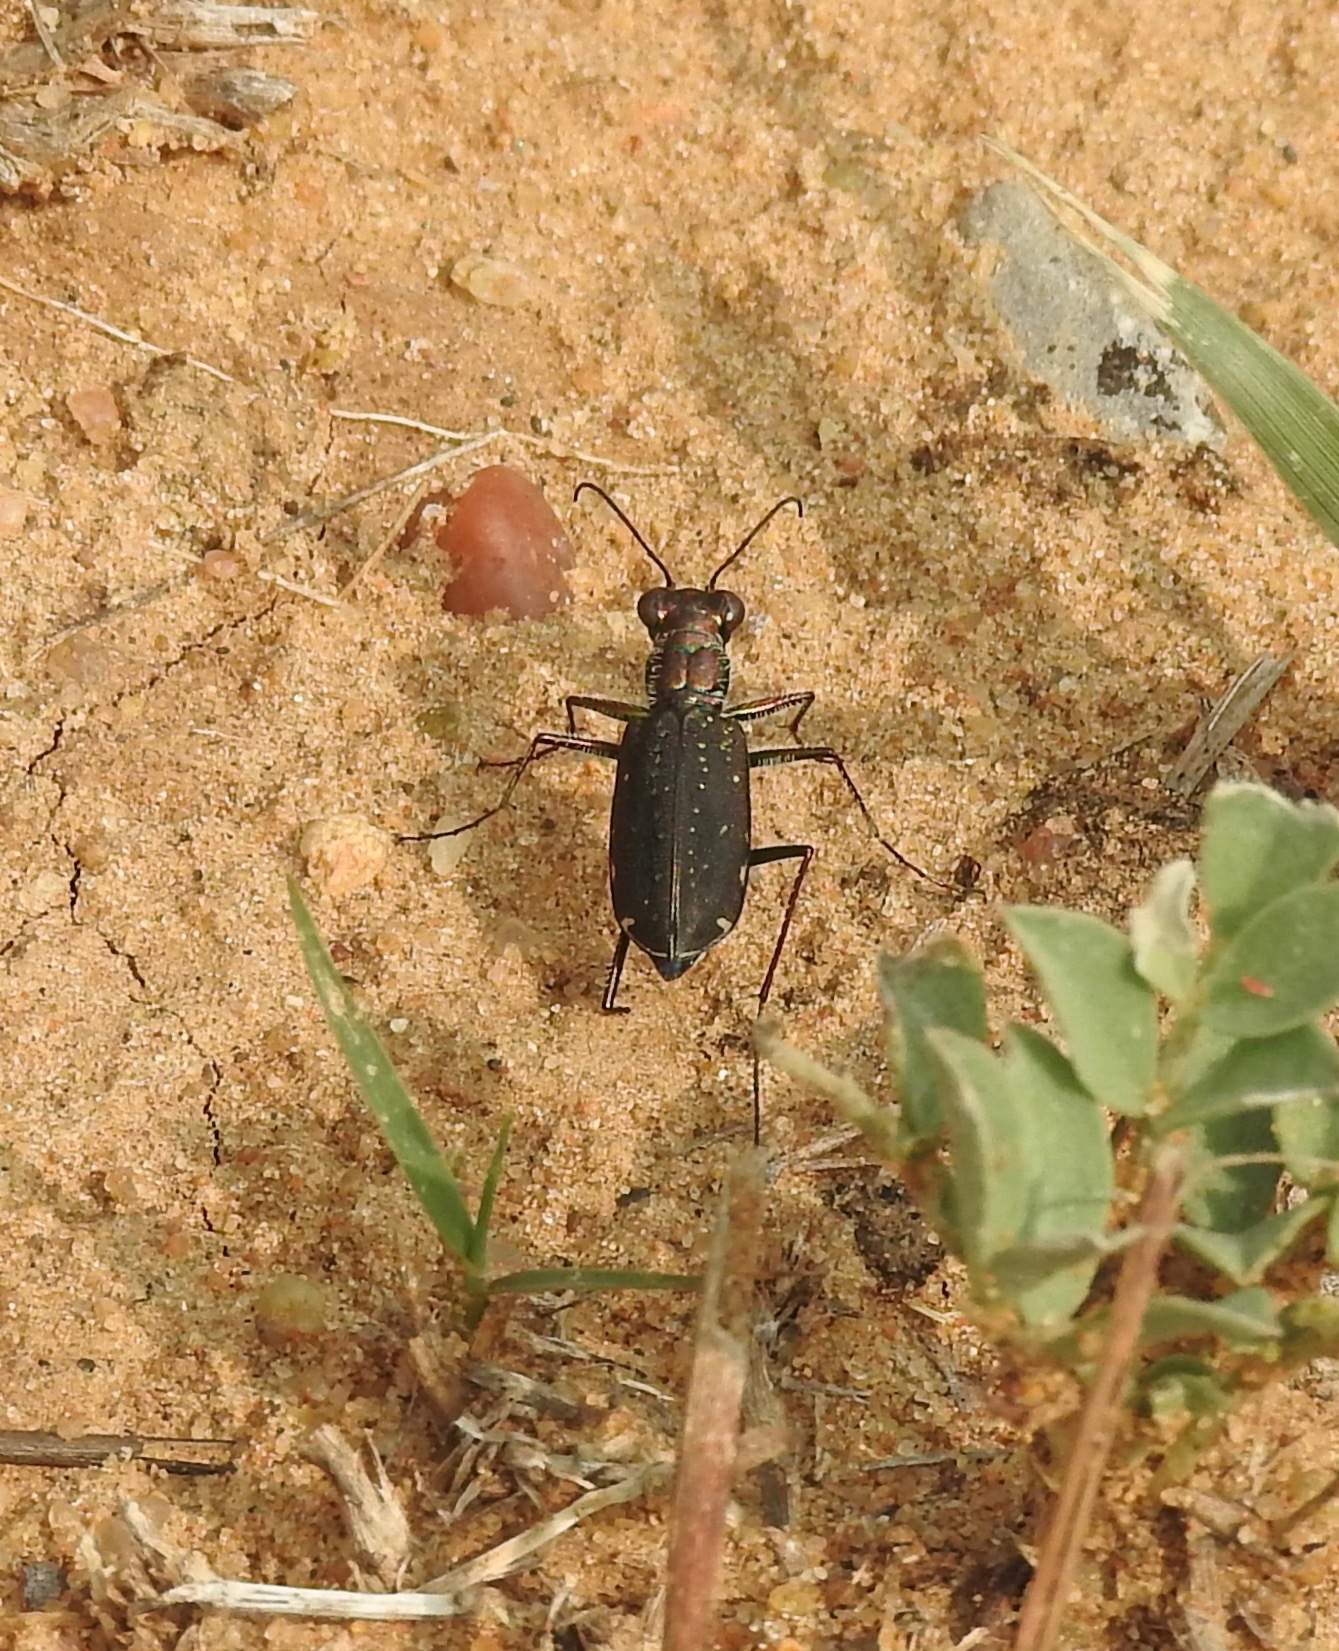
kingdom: Animalia
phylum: Arthropoda
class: Insecta
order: Coleoptera
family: Carabidae
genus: Cicindela
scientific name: Cicindela punctulata
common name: Punctured tiger beetle
